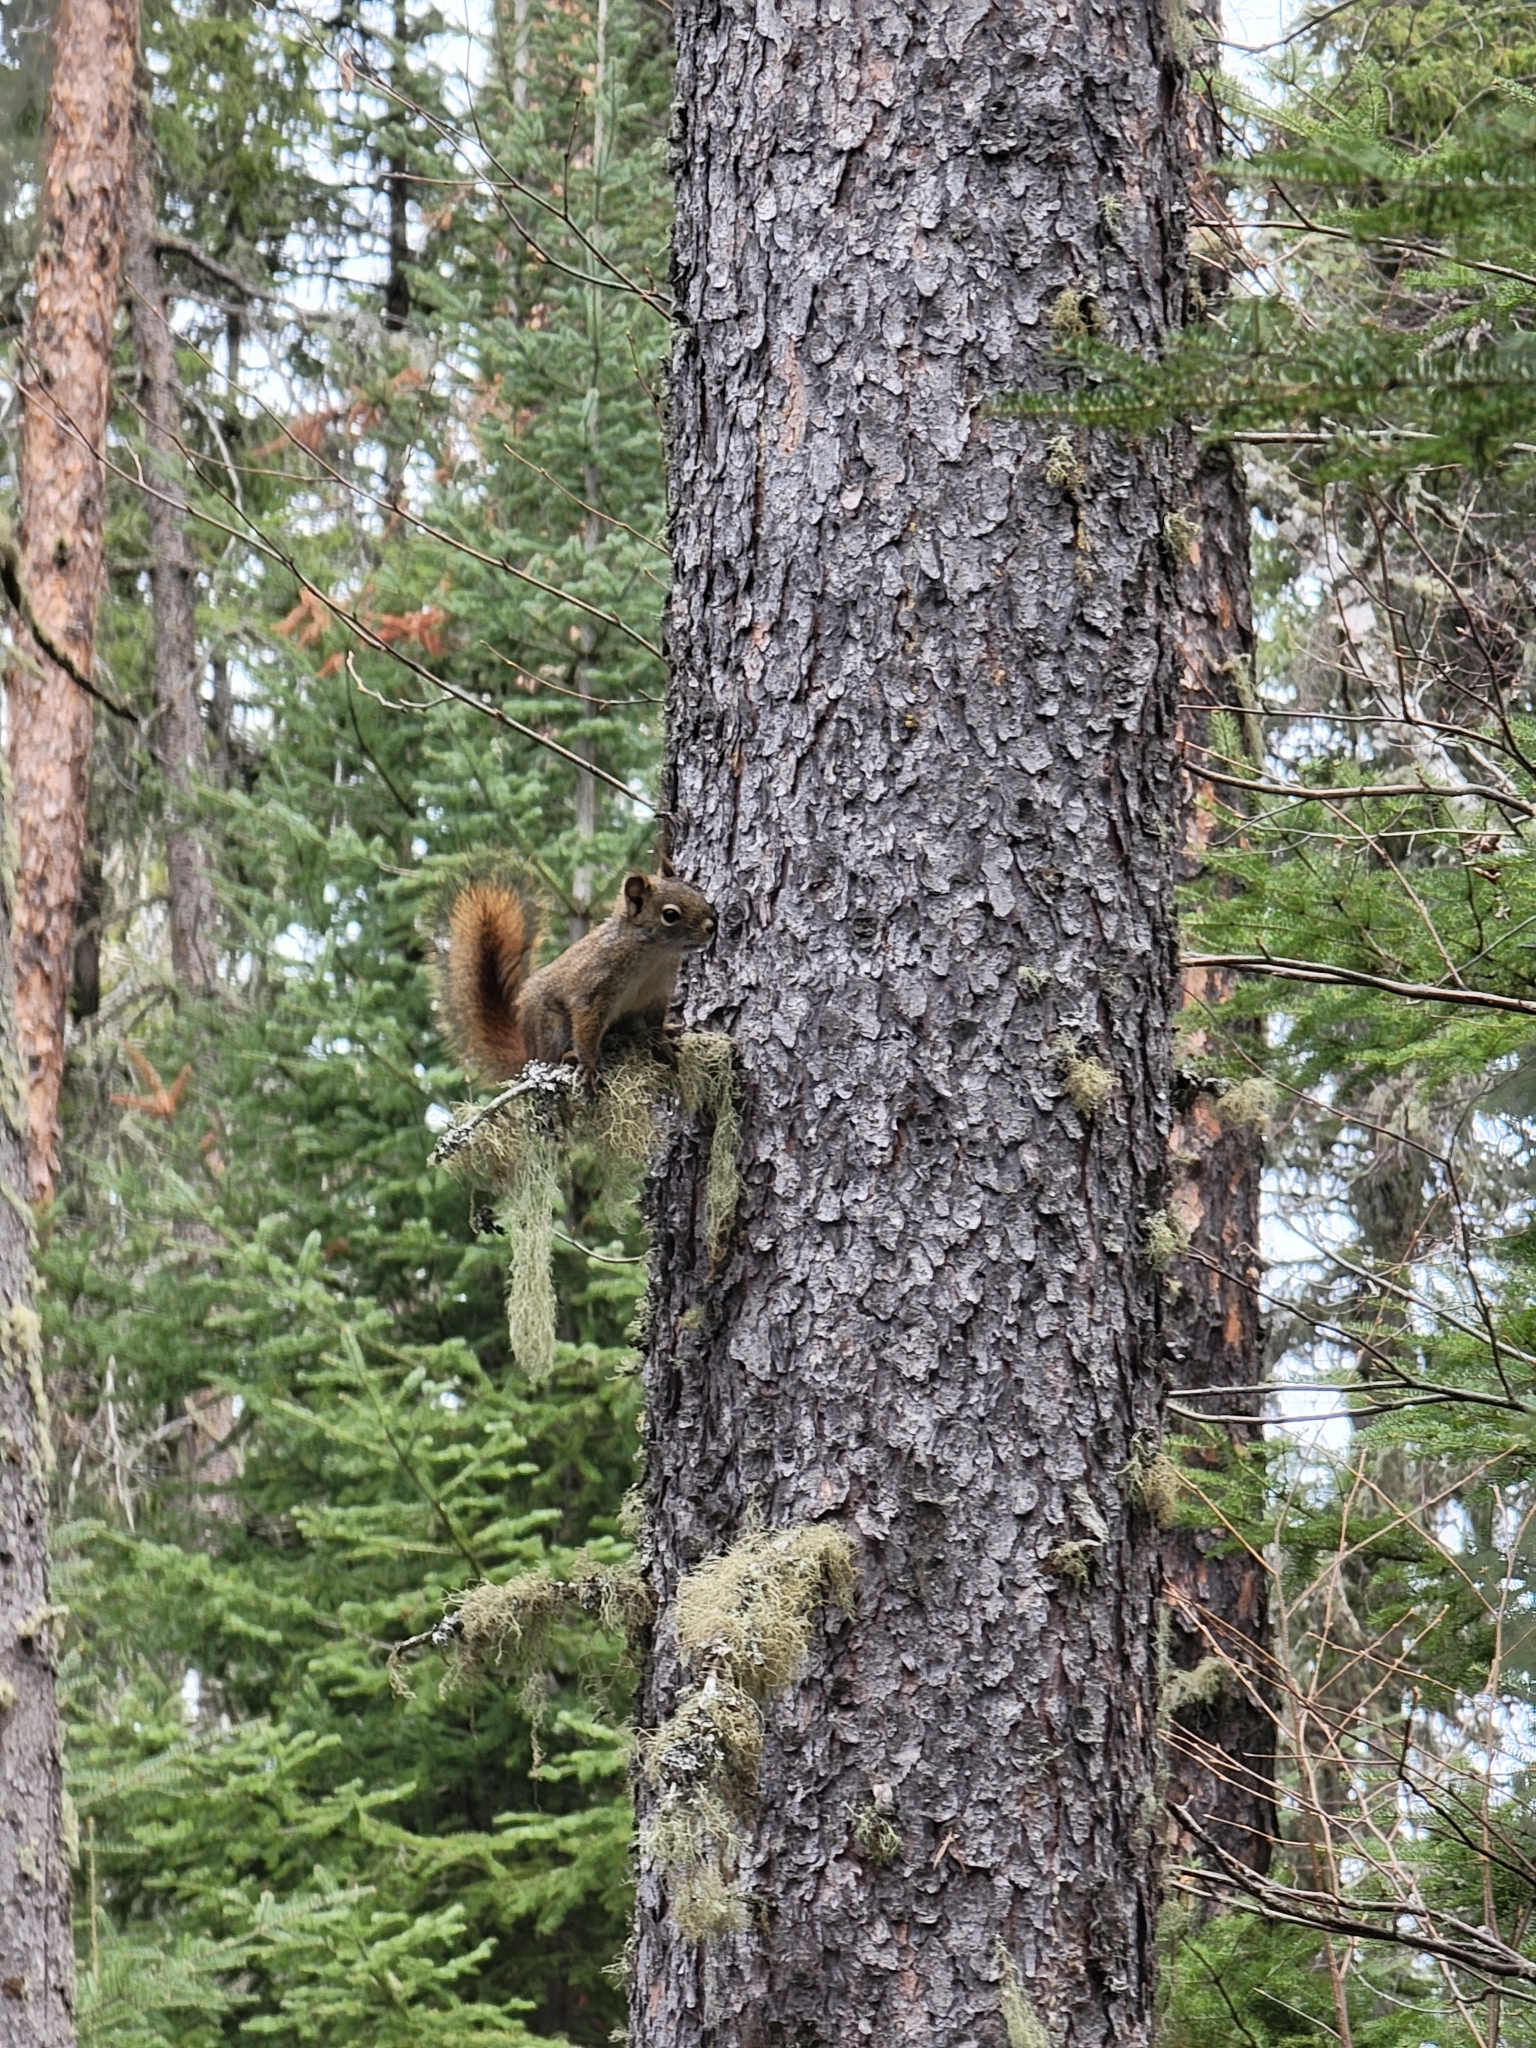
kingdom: Animalia
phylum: Chordata
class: Mammalia
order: Rodentia
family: Sciuridae
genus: Tamiasciurus
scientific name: Tamiasciurus hudsonicus
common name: Red squirrel
